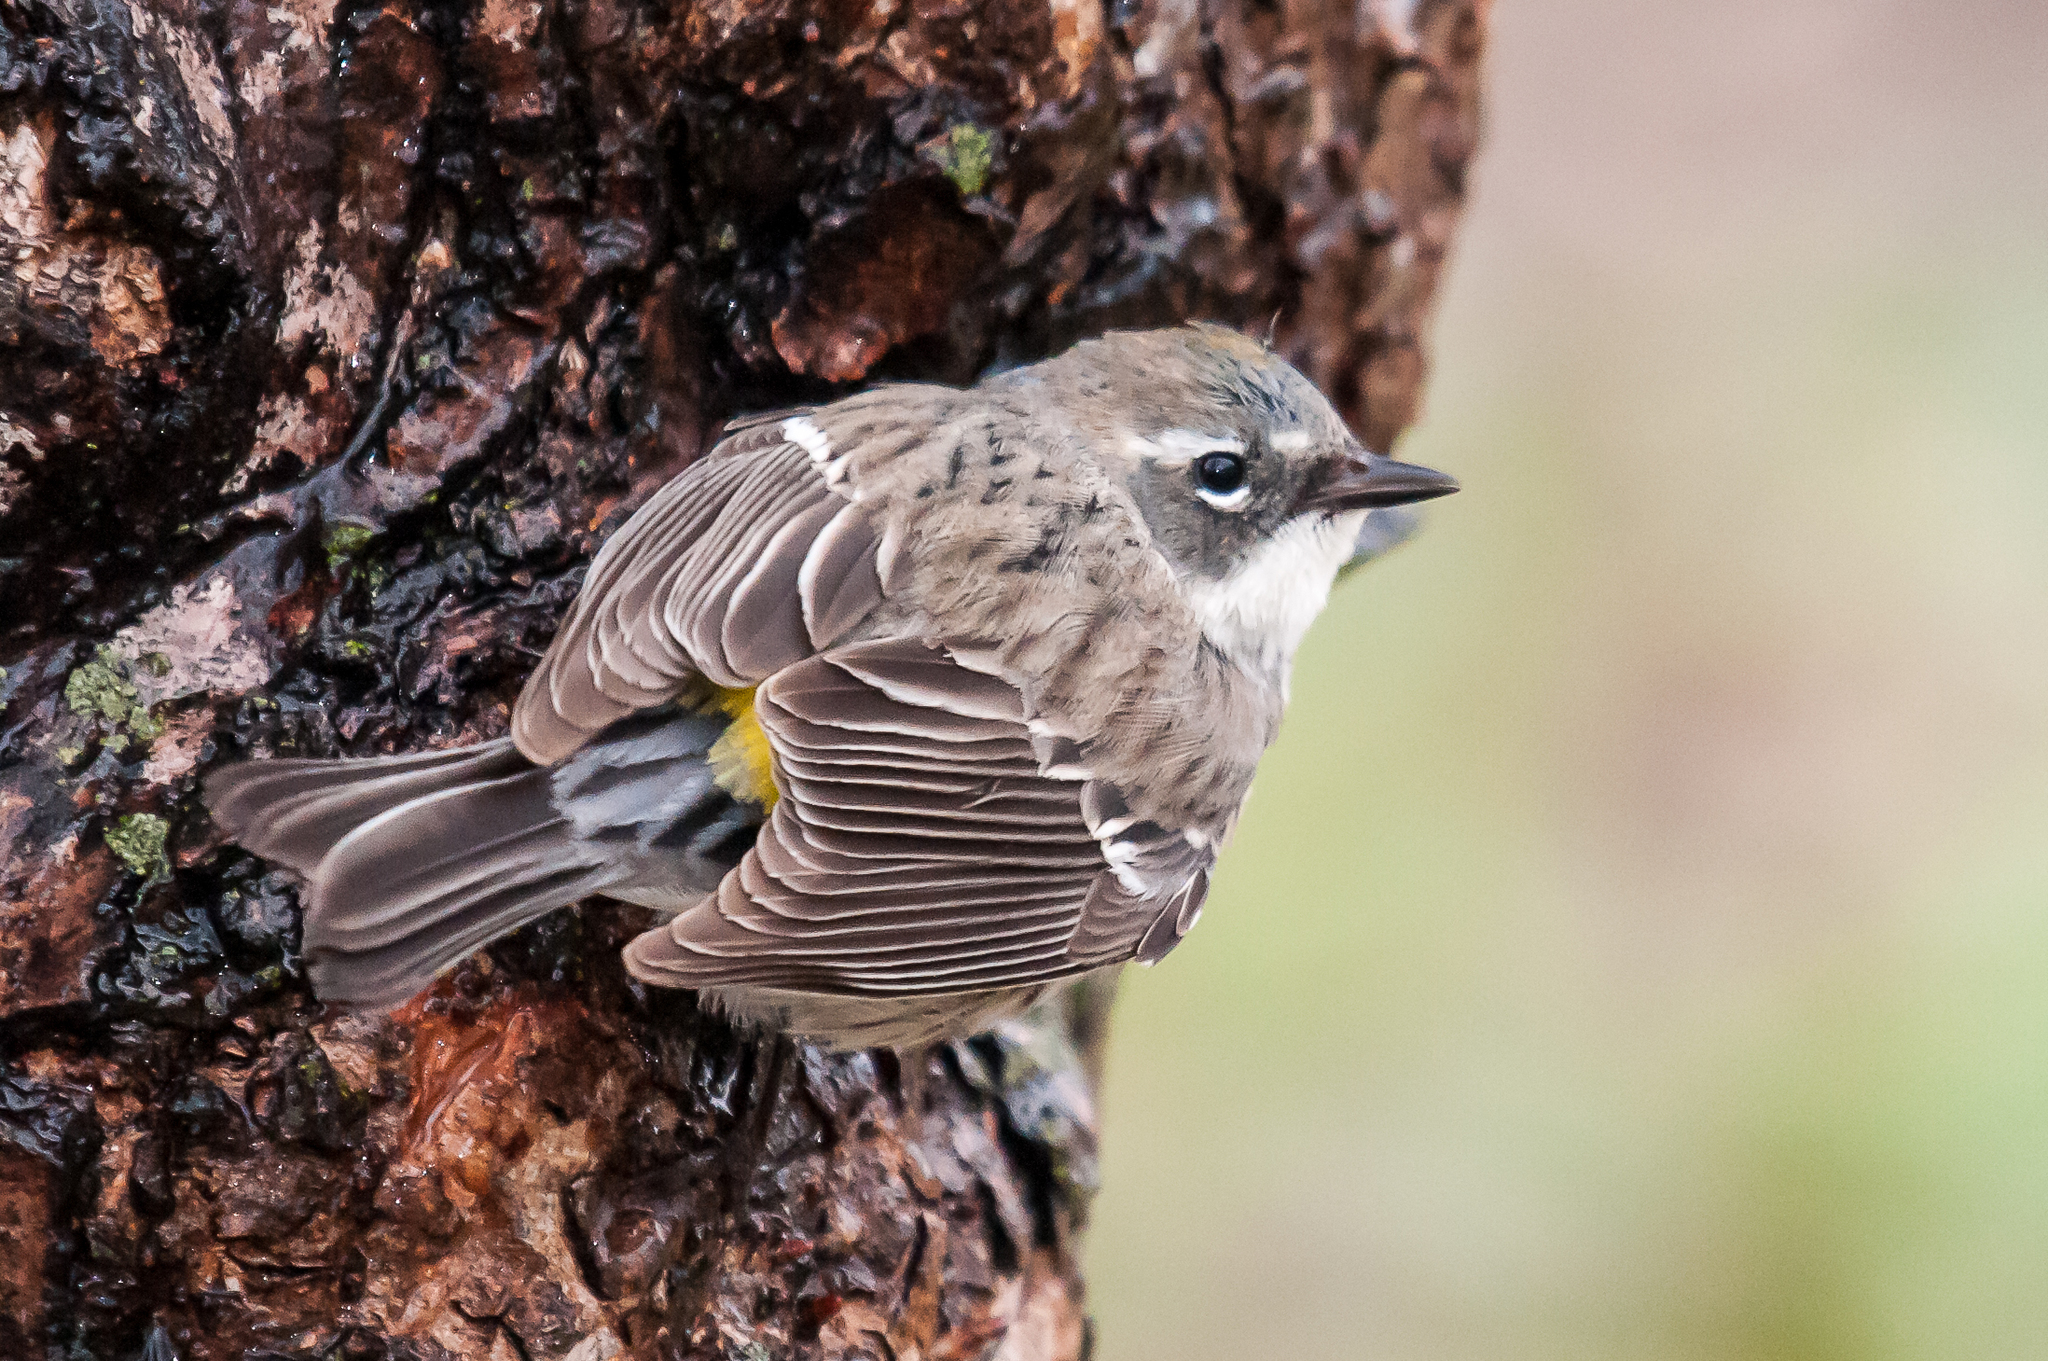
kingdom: Animalia
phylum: Chordata
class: Aves
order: Passeriformes
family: Parulidae
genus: Setophaga
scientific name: Setophaga coronata
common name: Myrtle warbler
